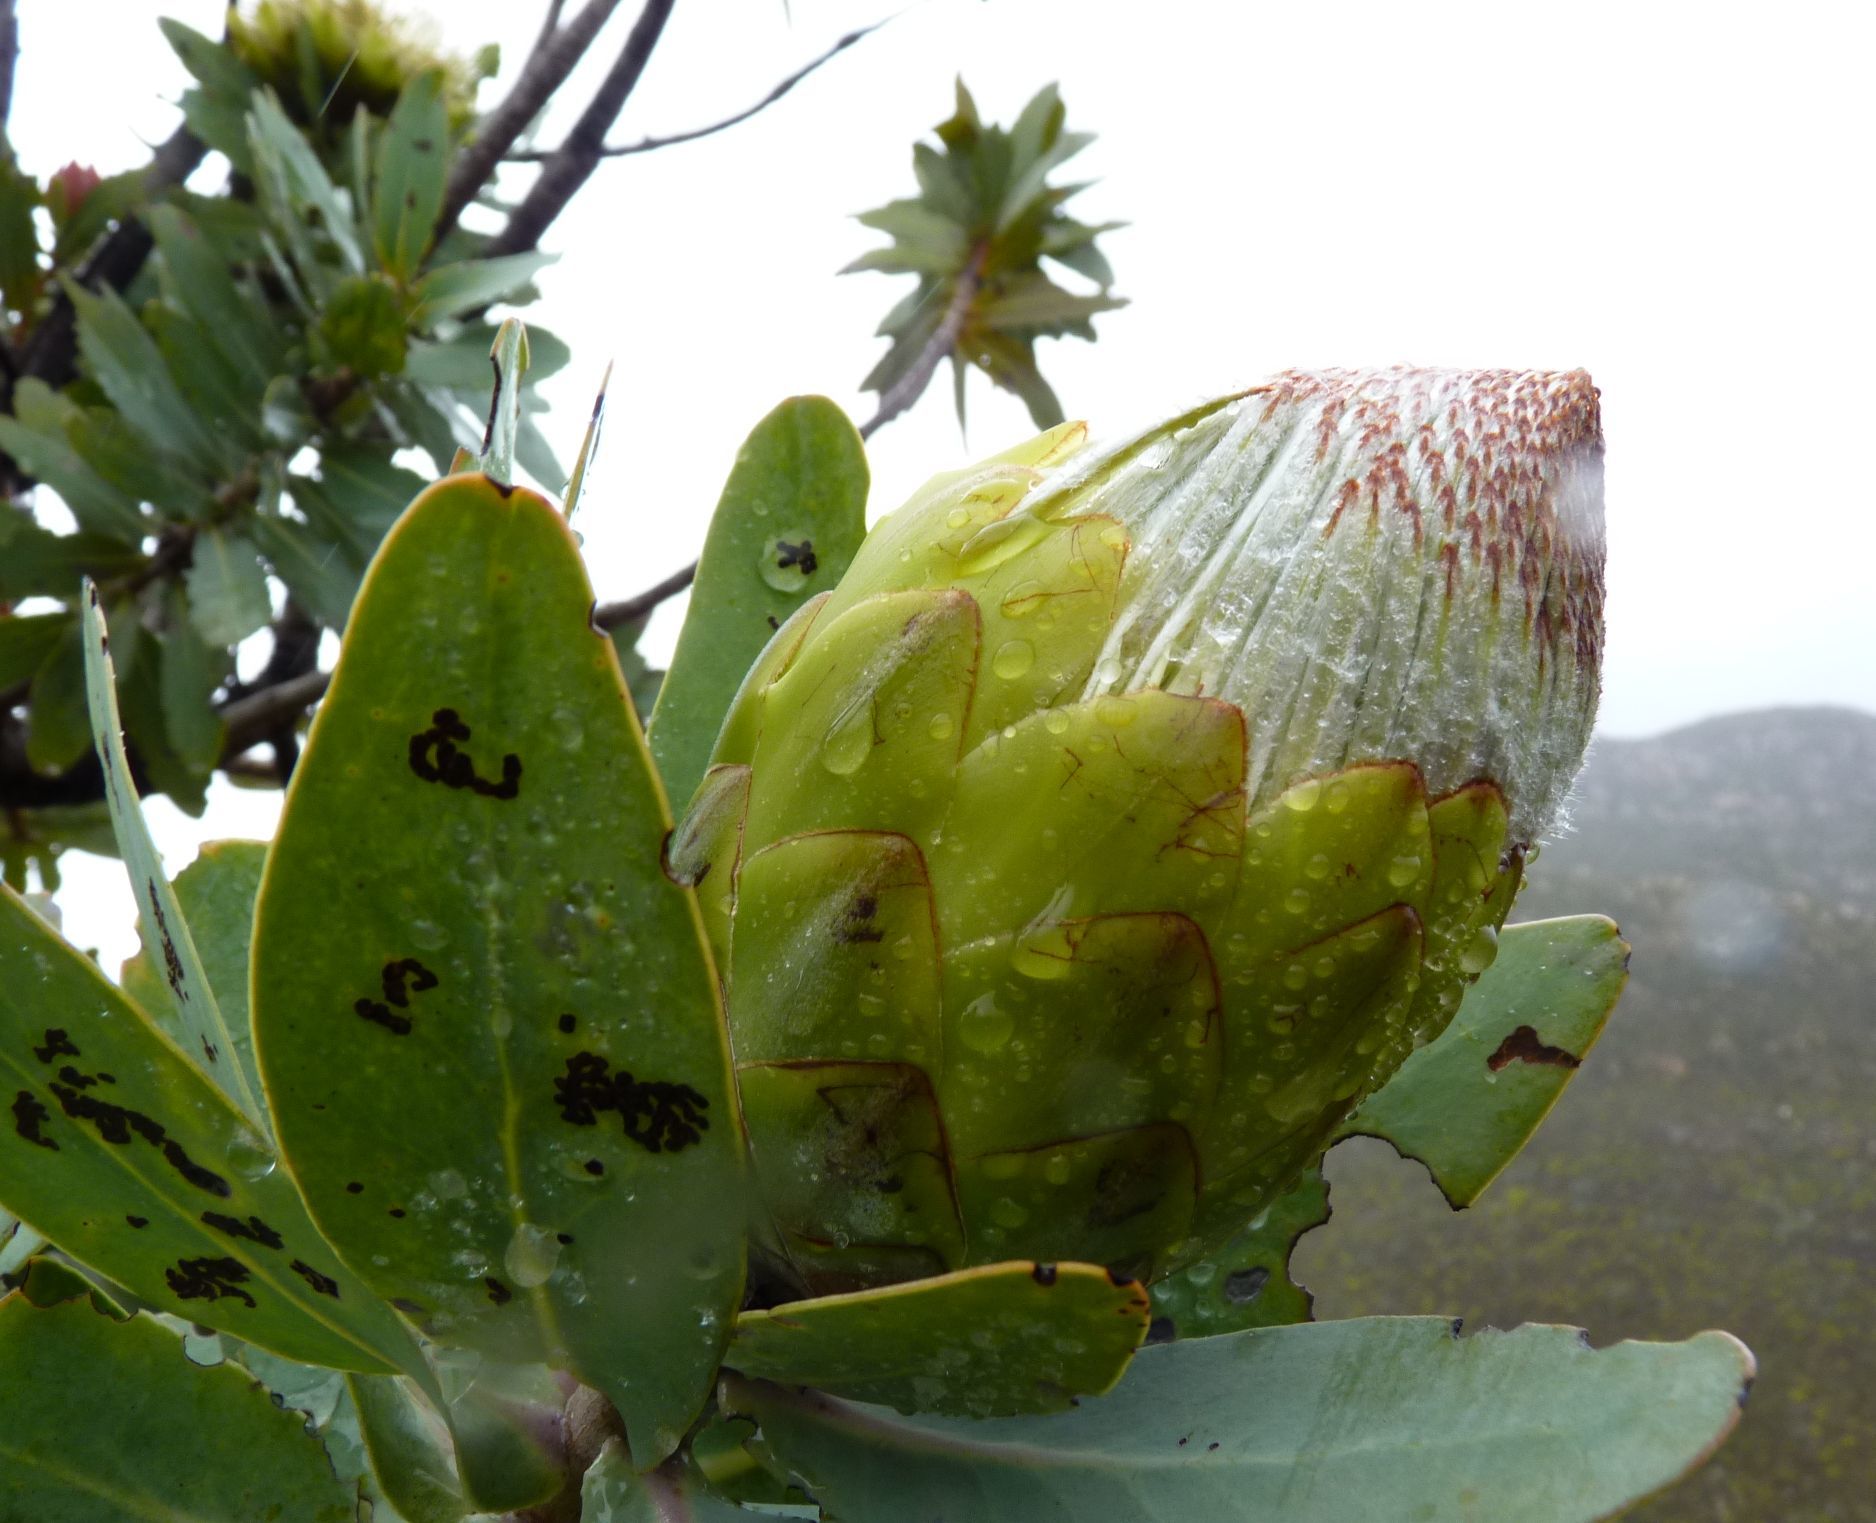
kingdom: Plantae
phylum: Tracheophyta
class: Magnoliopsida
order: Proteales
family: Proteaceae
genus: Protea
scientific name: Protea nitida
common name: Tree protea
